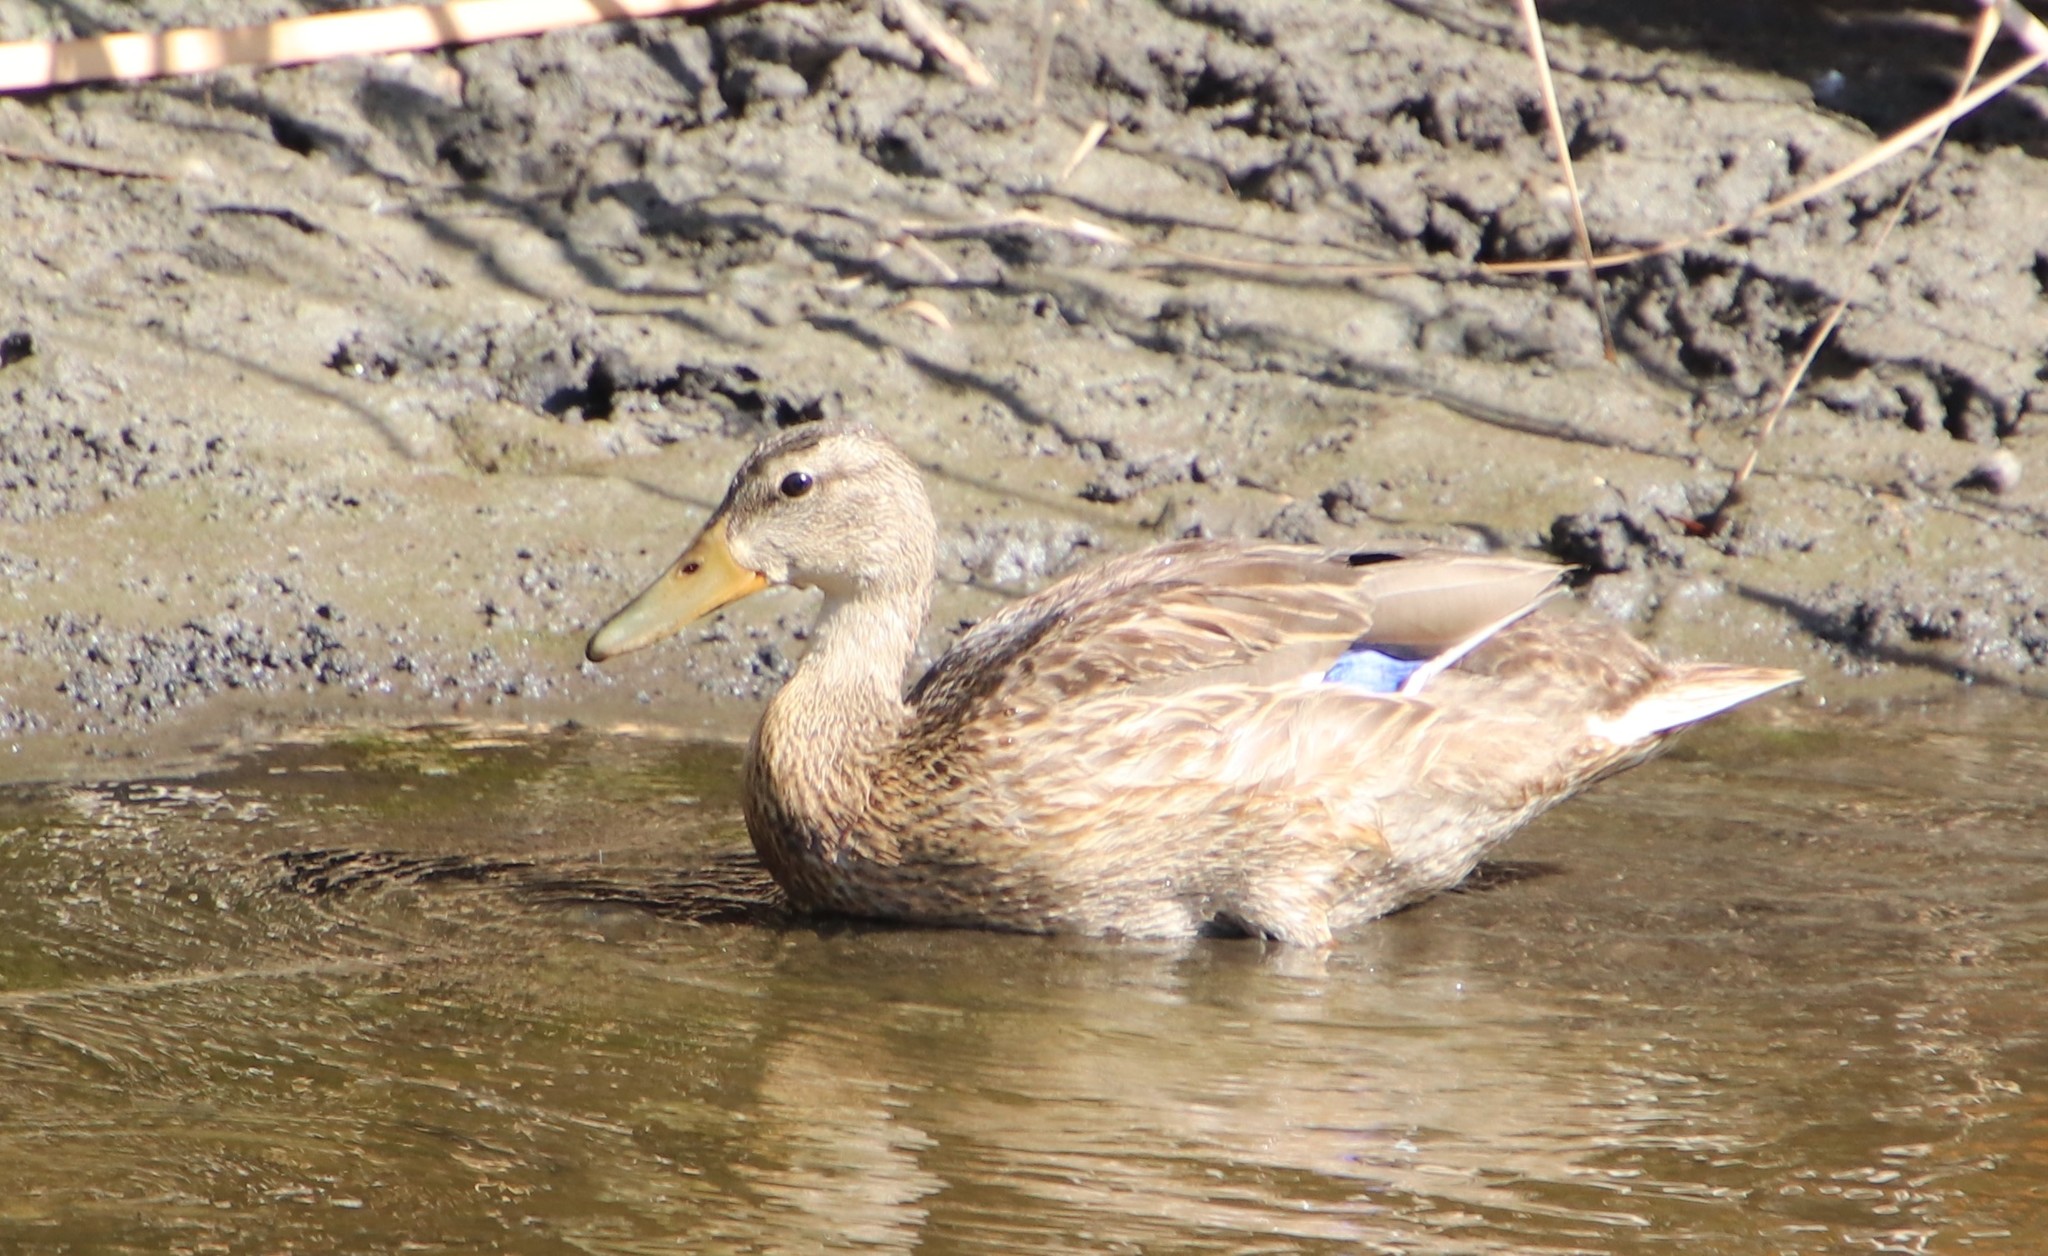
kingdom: Animalia
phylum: Chordata
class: Aves
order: Anseriformes
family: Anatidae
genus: Anas
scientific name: Anas platyrhynchos
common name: Mallard
